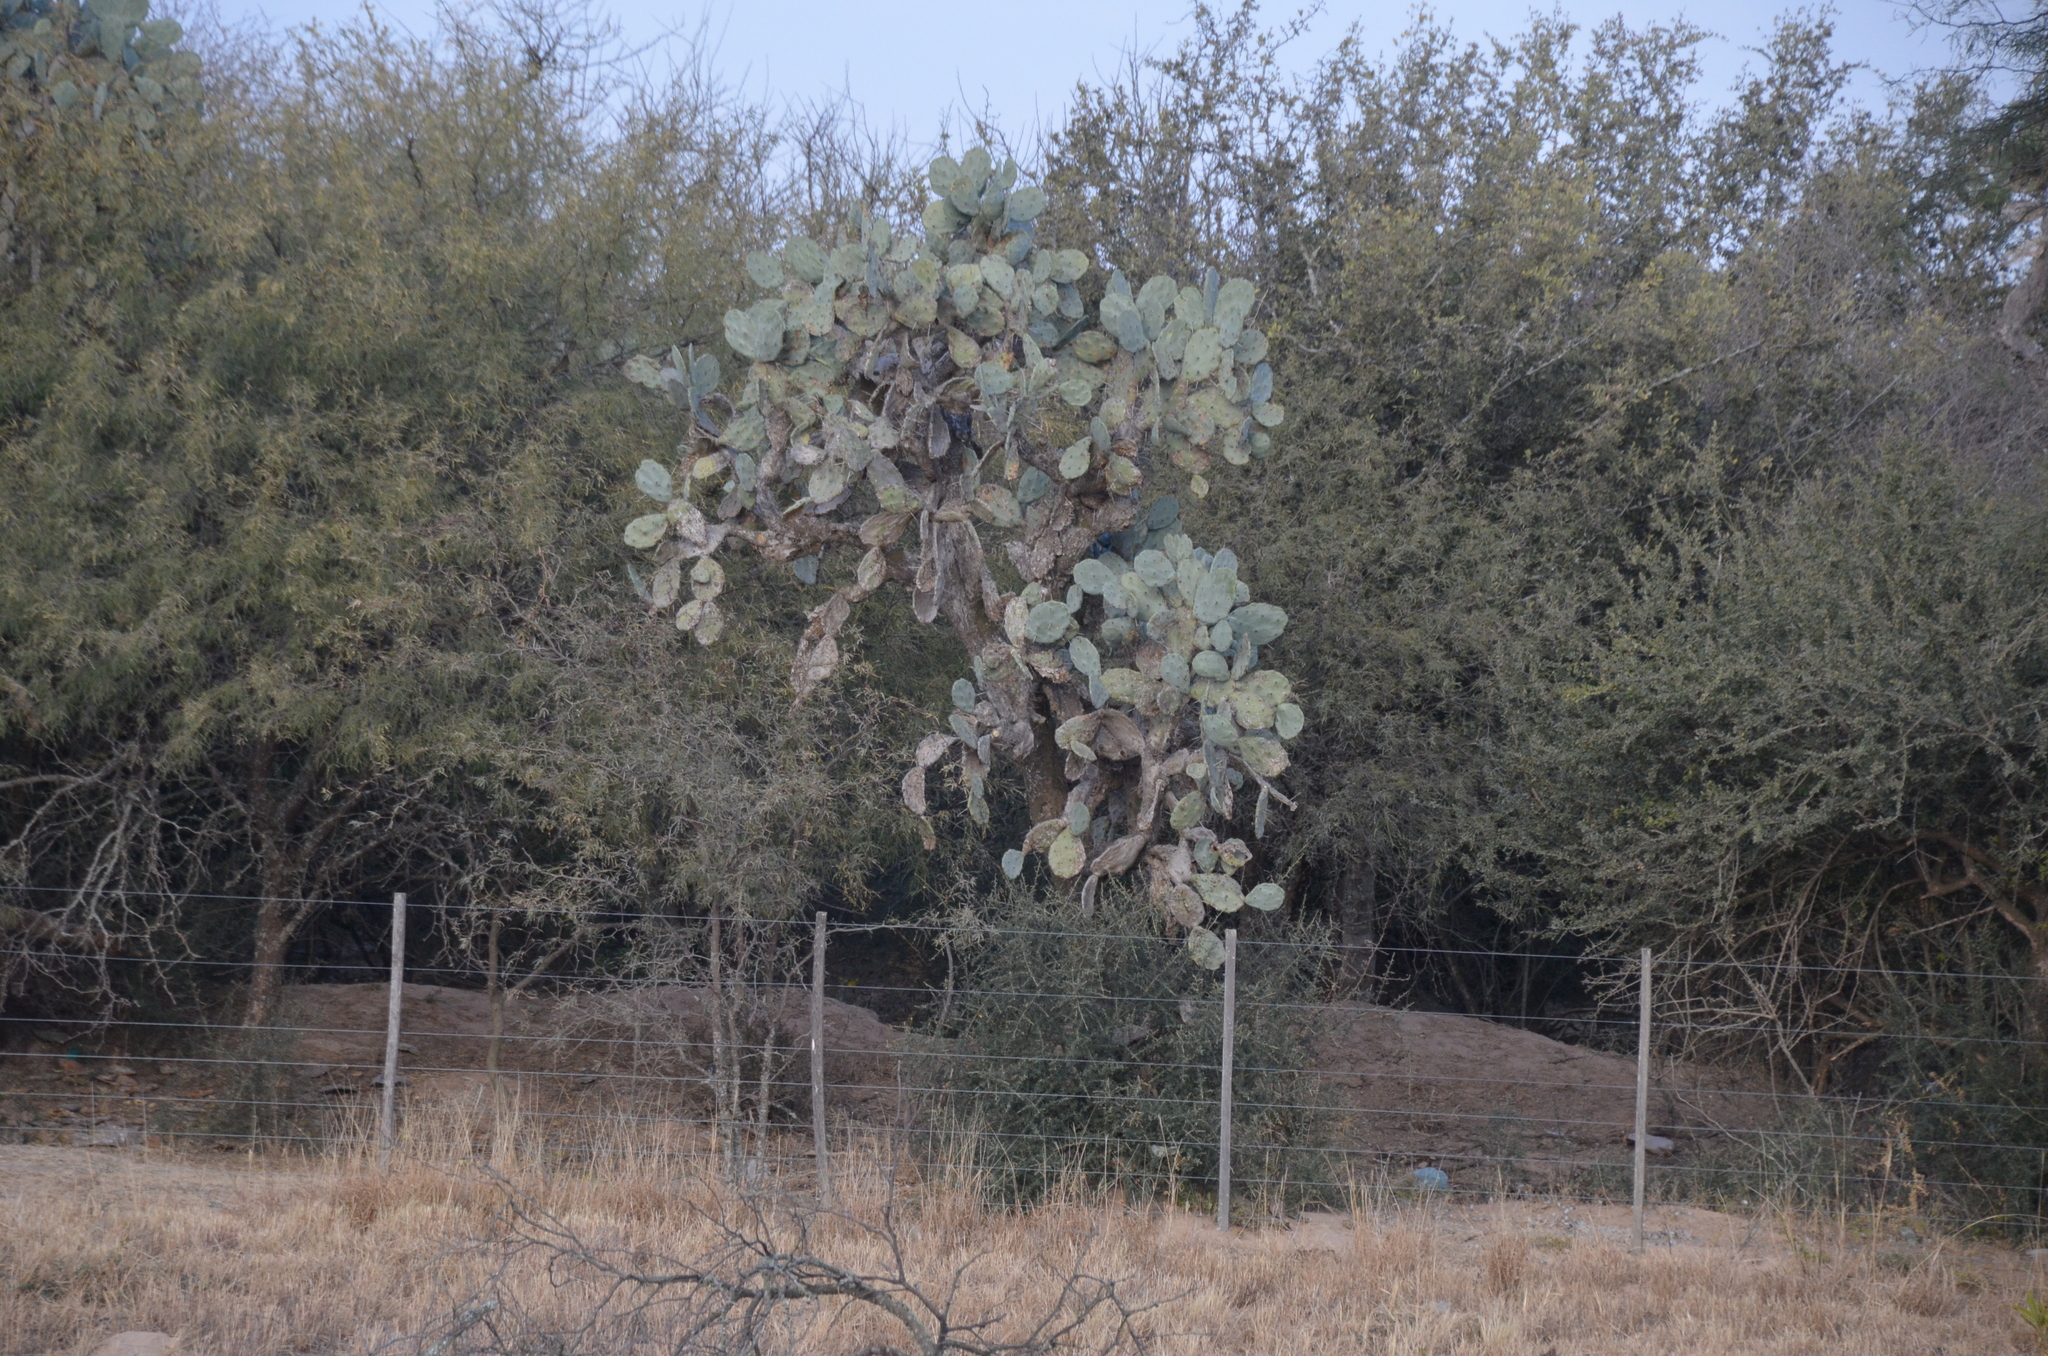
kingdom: Plantae
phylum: Tracheophyta
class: Magnoliopsida
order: Caryophyllales
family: Cactaceae
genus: Opuntia
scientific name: Opuntia quimilo
